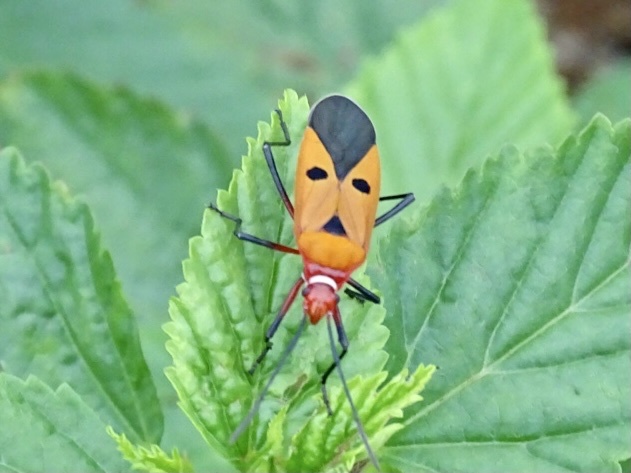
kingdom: Animalia
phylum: Arthropoda
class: Insecta
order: Hemiptera
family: Pyrrhocoridae
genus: Dysdercus
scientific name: Dysdercus cingulatus
